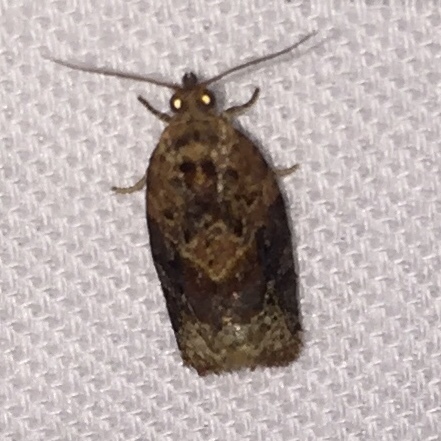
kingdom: Animalia
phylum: Arthropoda
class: Insecta
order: Lepidoptera
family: Tortricidae
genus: Argyrotaenia
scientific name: Argyrotaenia velutinana
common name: Red-banded leafroller moth
